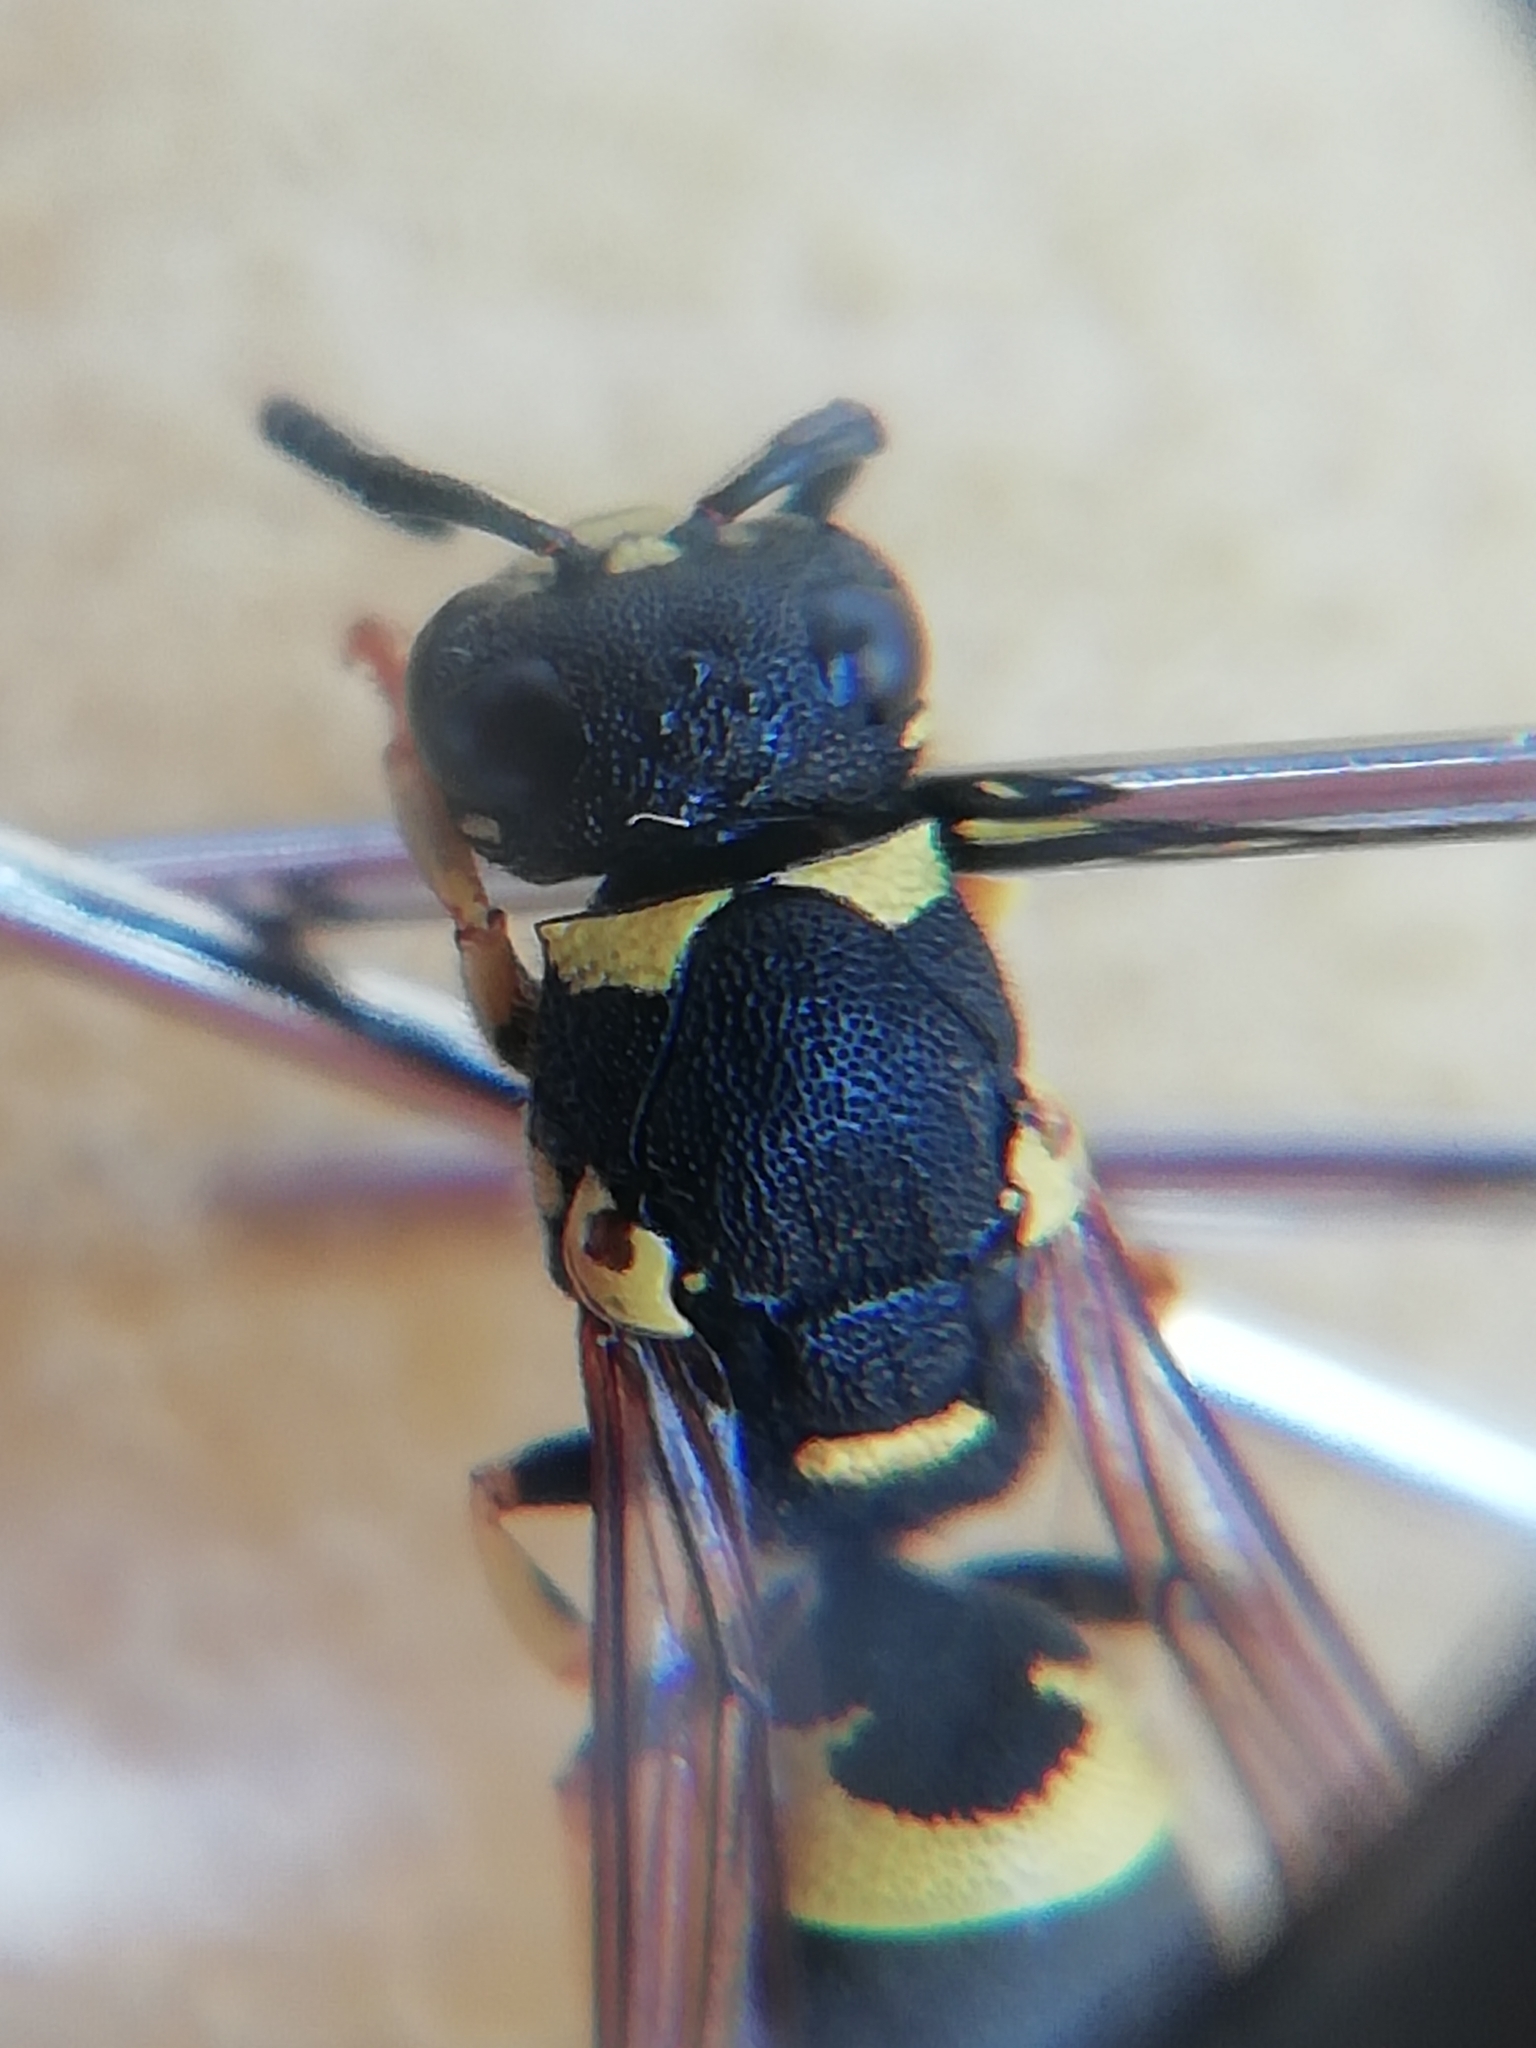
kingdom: Animalia
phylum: Arthropoda
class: Insecta
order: Hymenoptera
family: Eumenidae
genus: Allodynerus
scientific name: Allodynerus rossii
